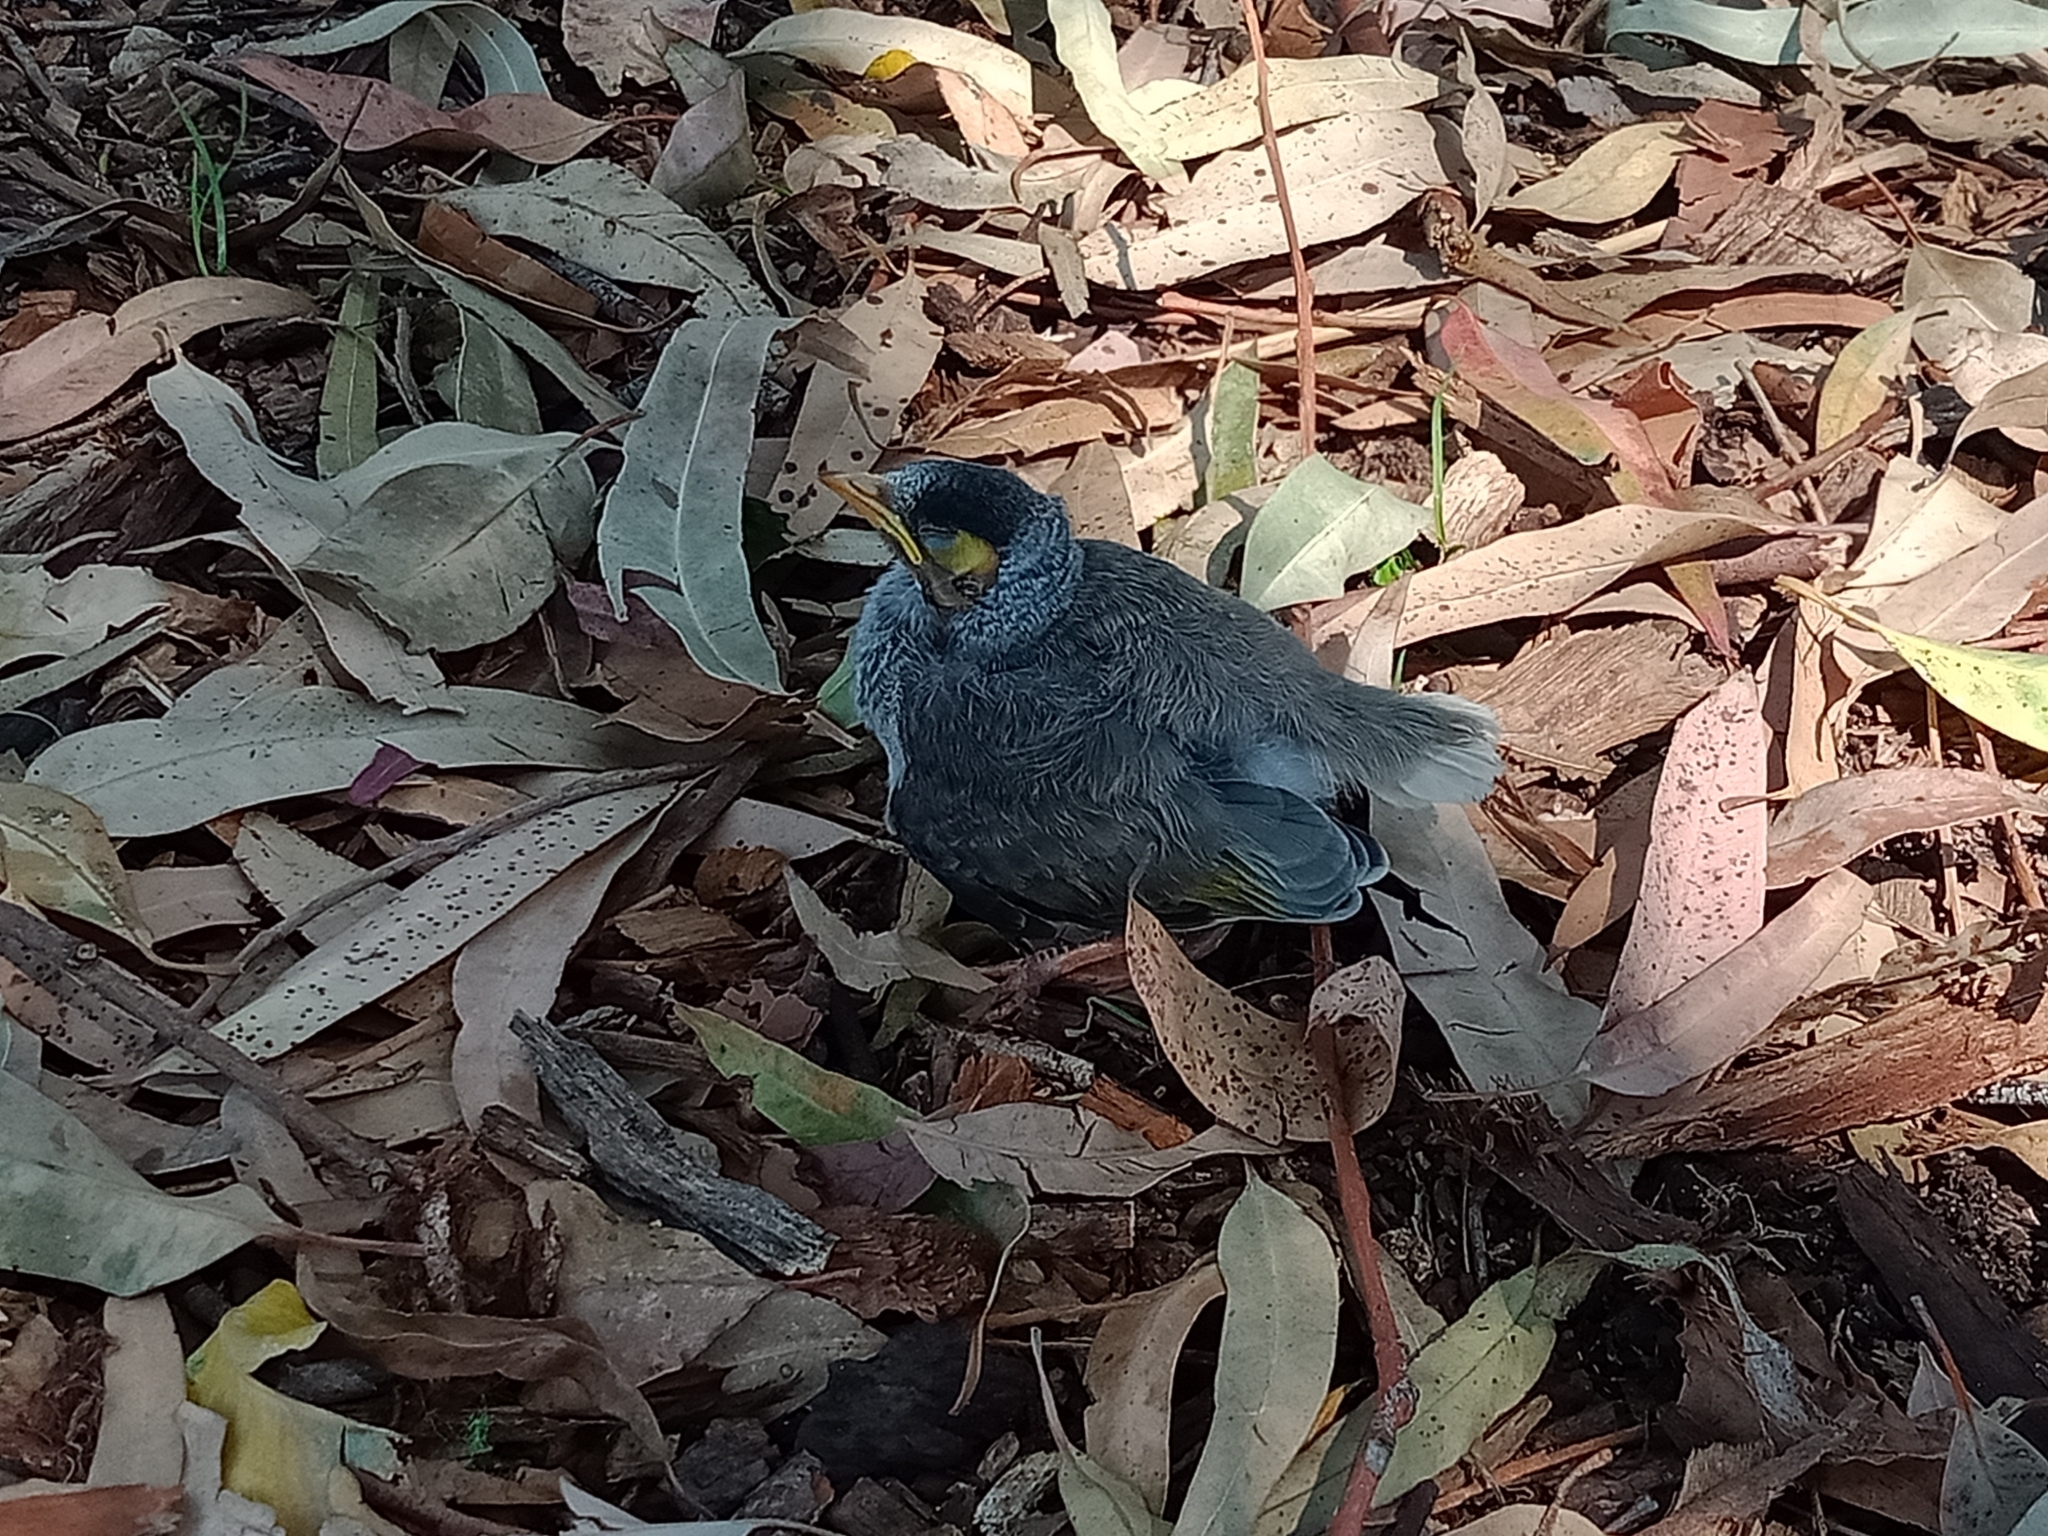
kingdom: Animalia
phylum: Chordata
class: Aves
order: Passeriformes
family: Meliphagidae
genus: Manorina
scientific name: Manorina melanocephala
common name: Noisy miner
